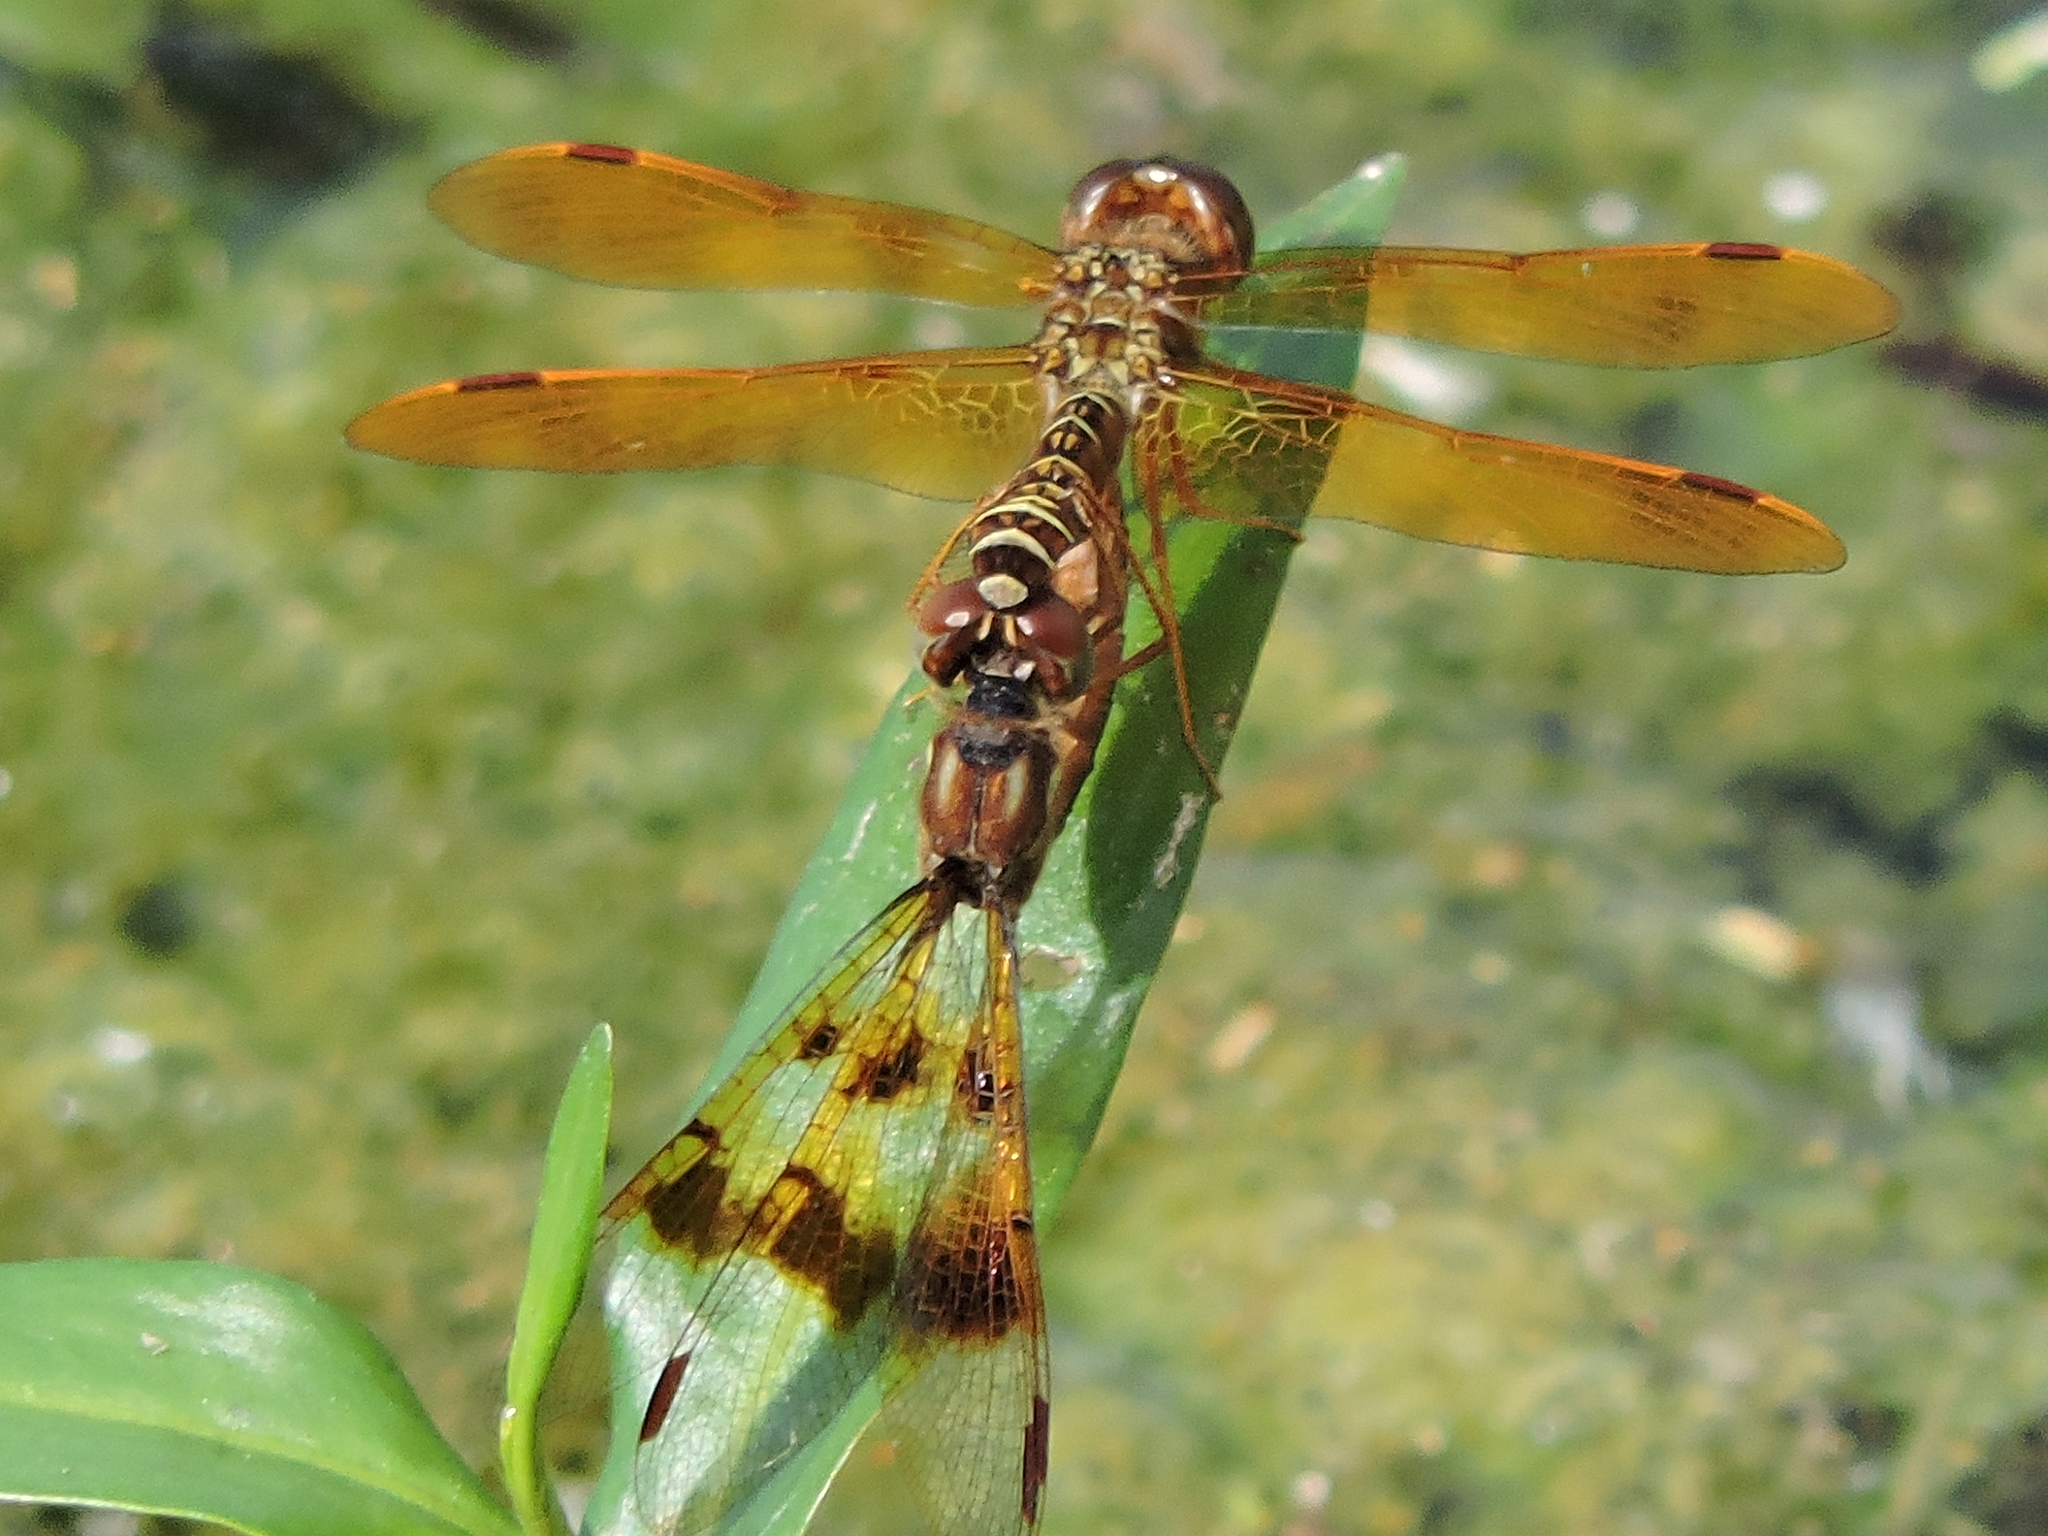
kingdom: Animalia
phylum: Arthropoda
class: Insecta
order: Odonata
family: Libellulidae
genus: Perithemis
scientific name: Perithemis tenera
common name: Eastern amberwing
